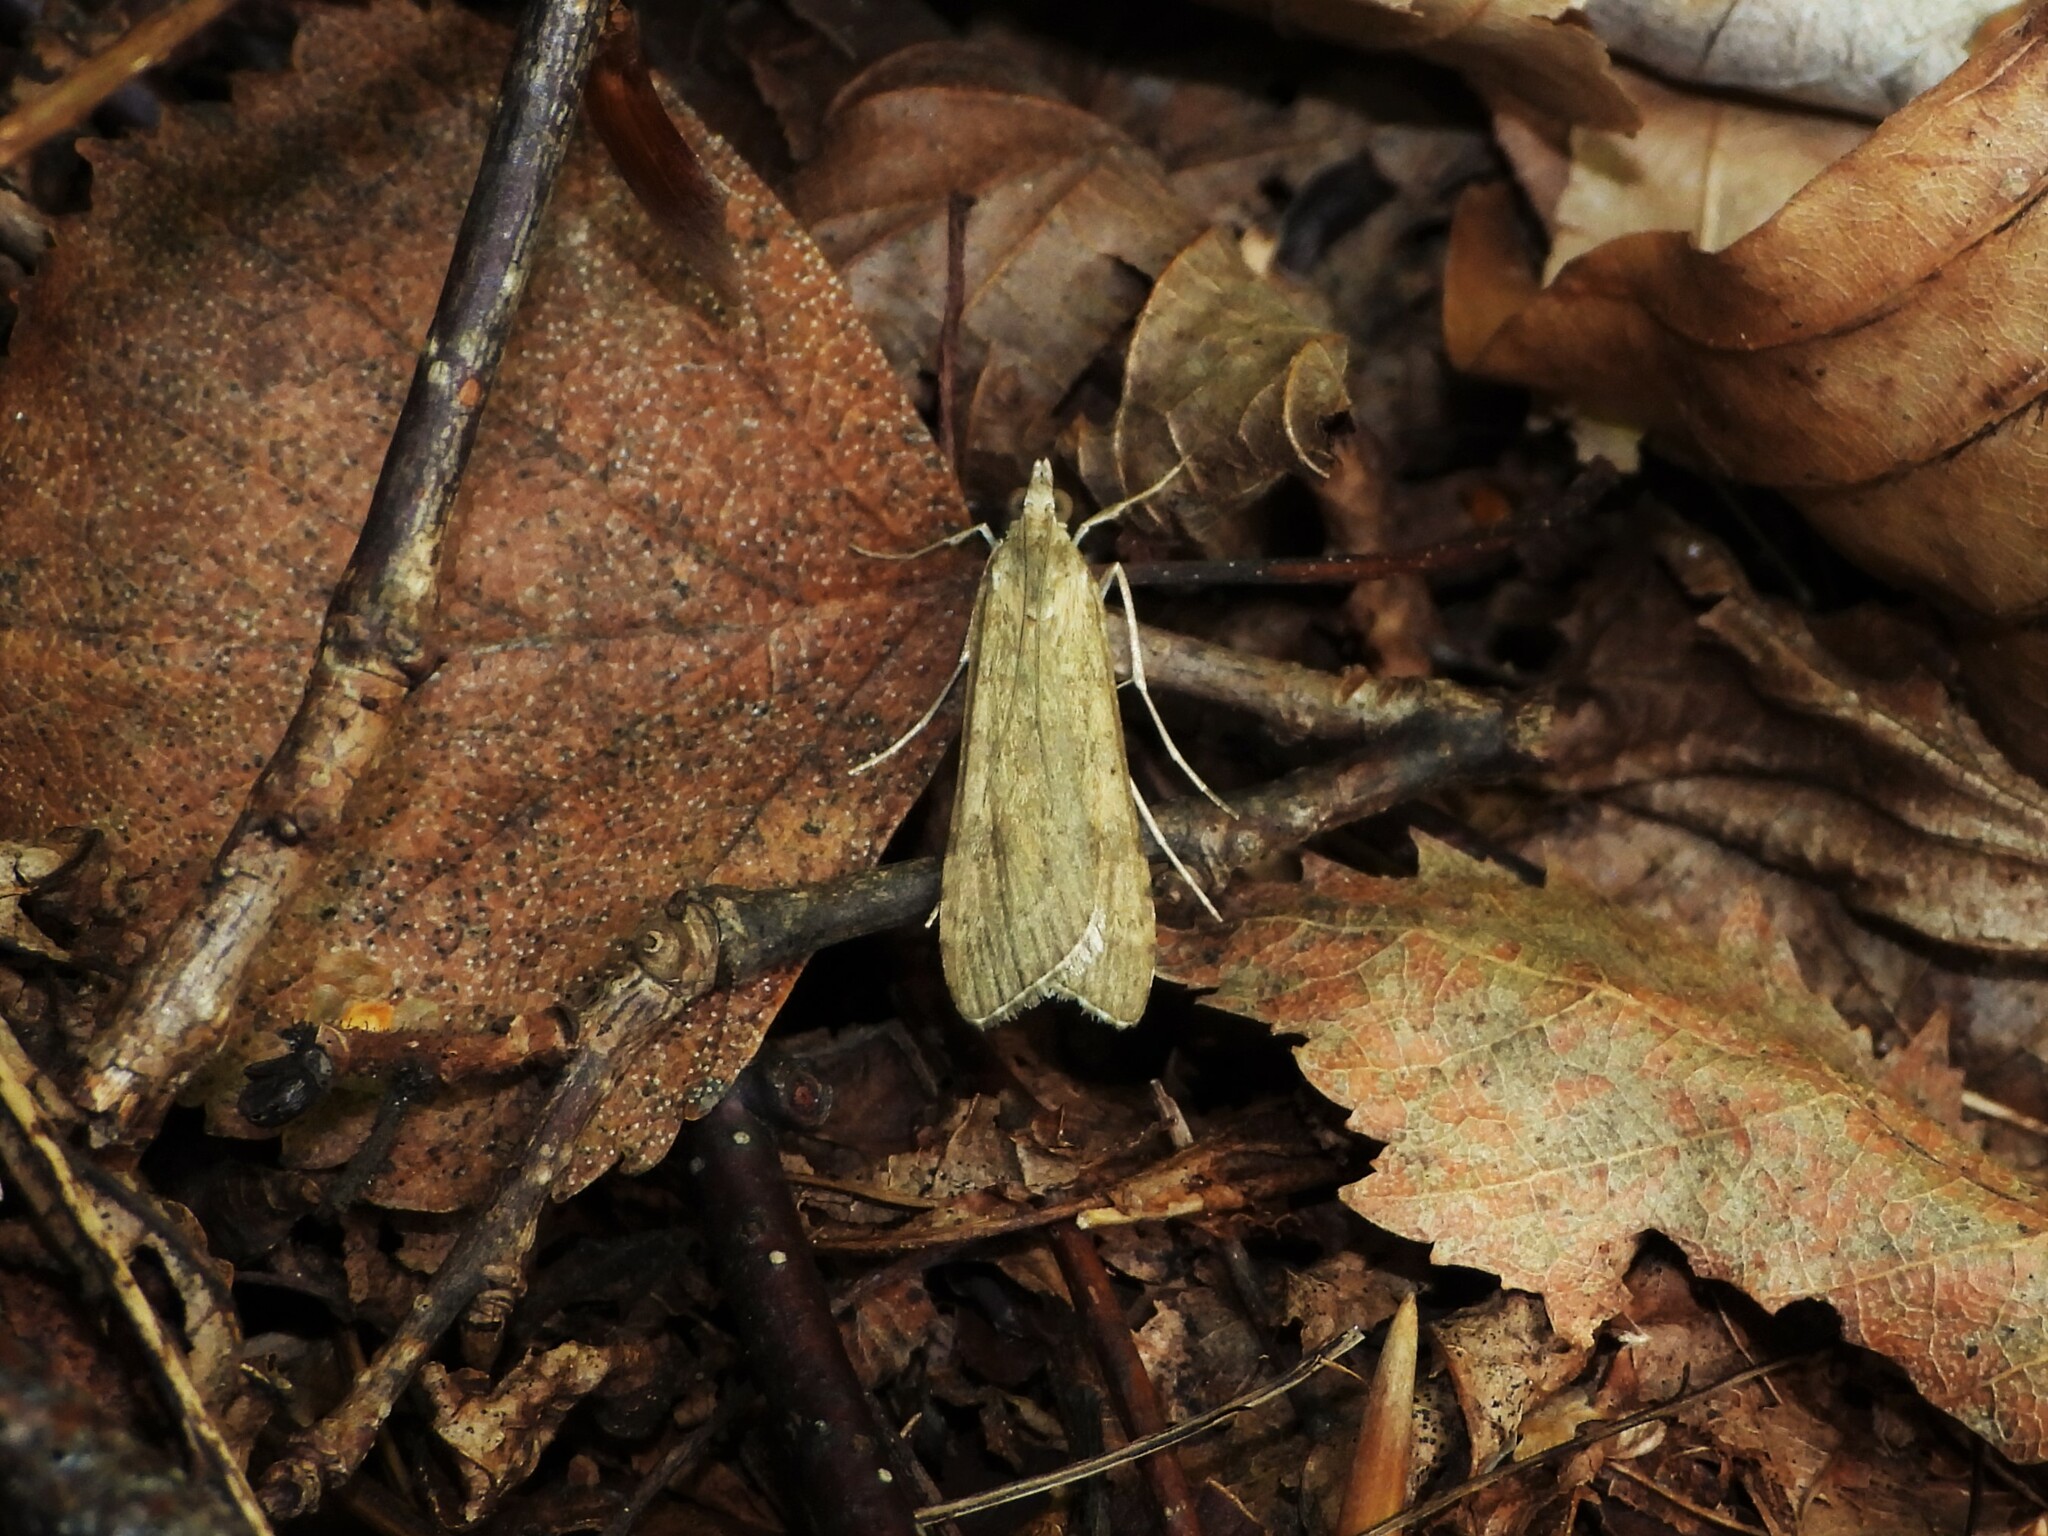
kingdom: Animalia
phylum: Arthropoda
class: Insecta
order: Lepidoptera
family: Crambidae
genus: Nomophila
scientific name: Nomophila noctuella
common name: Rush veneer
